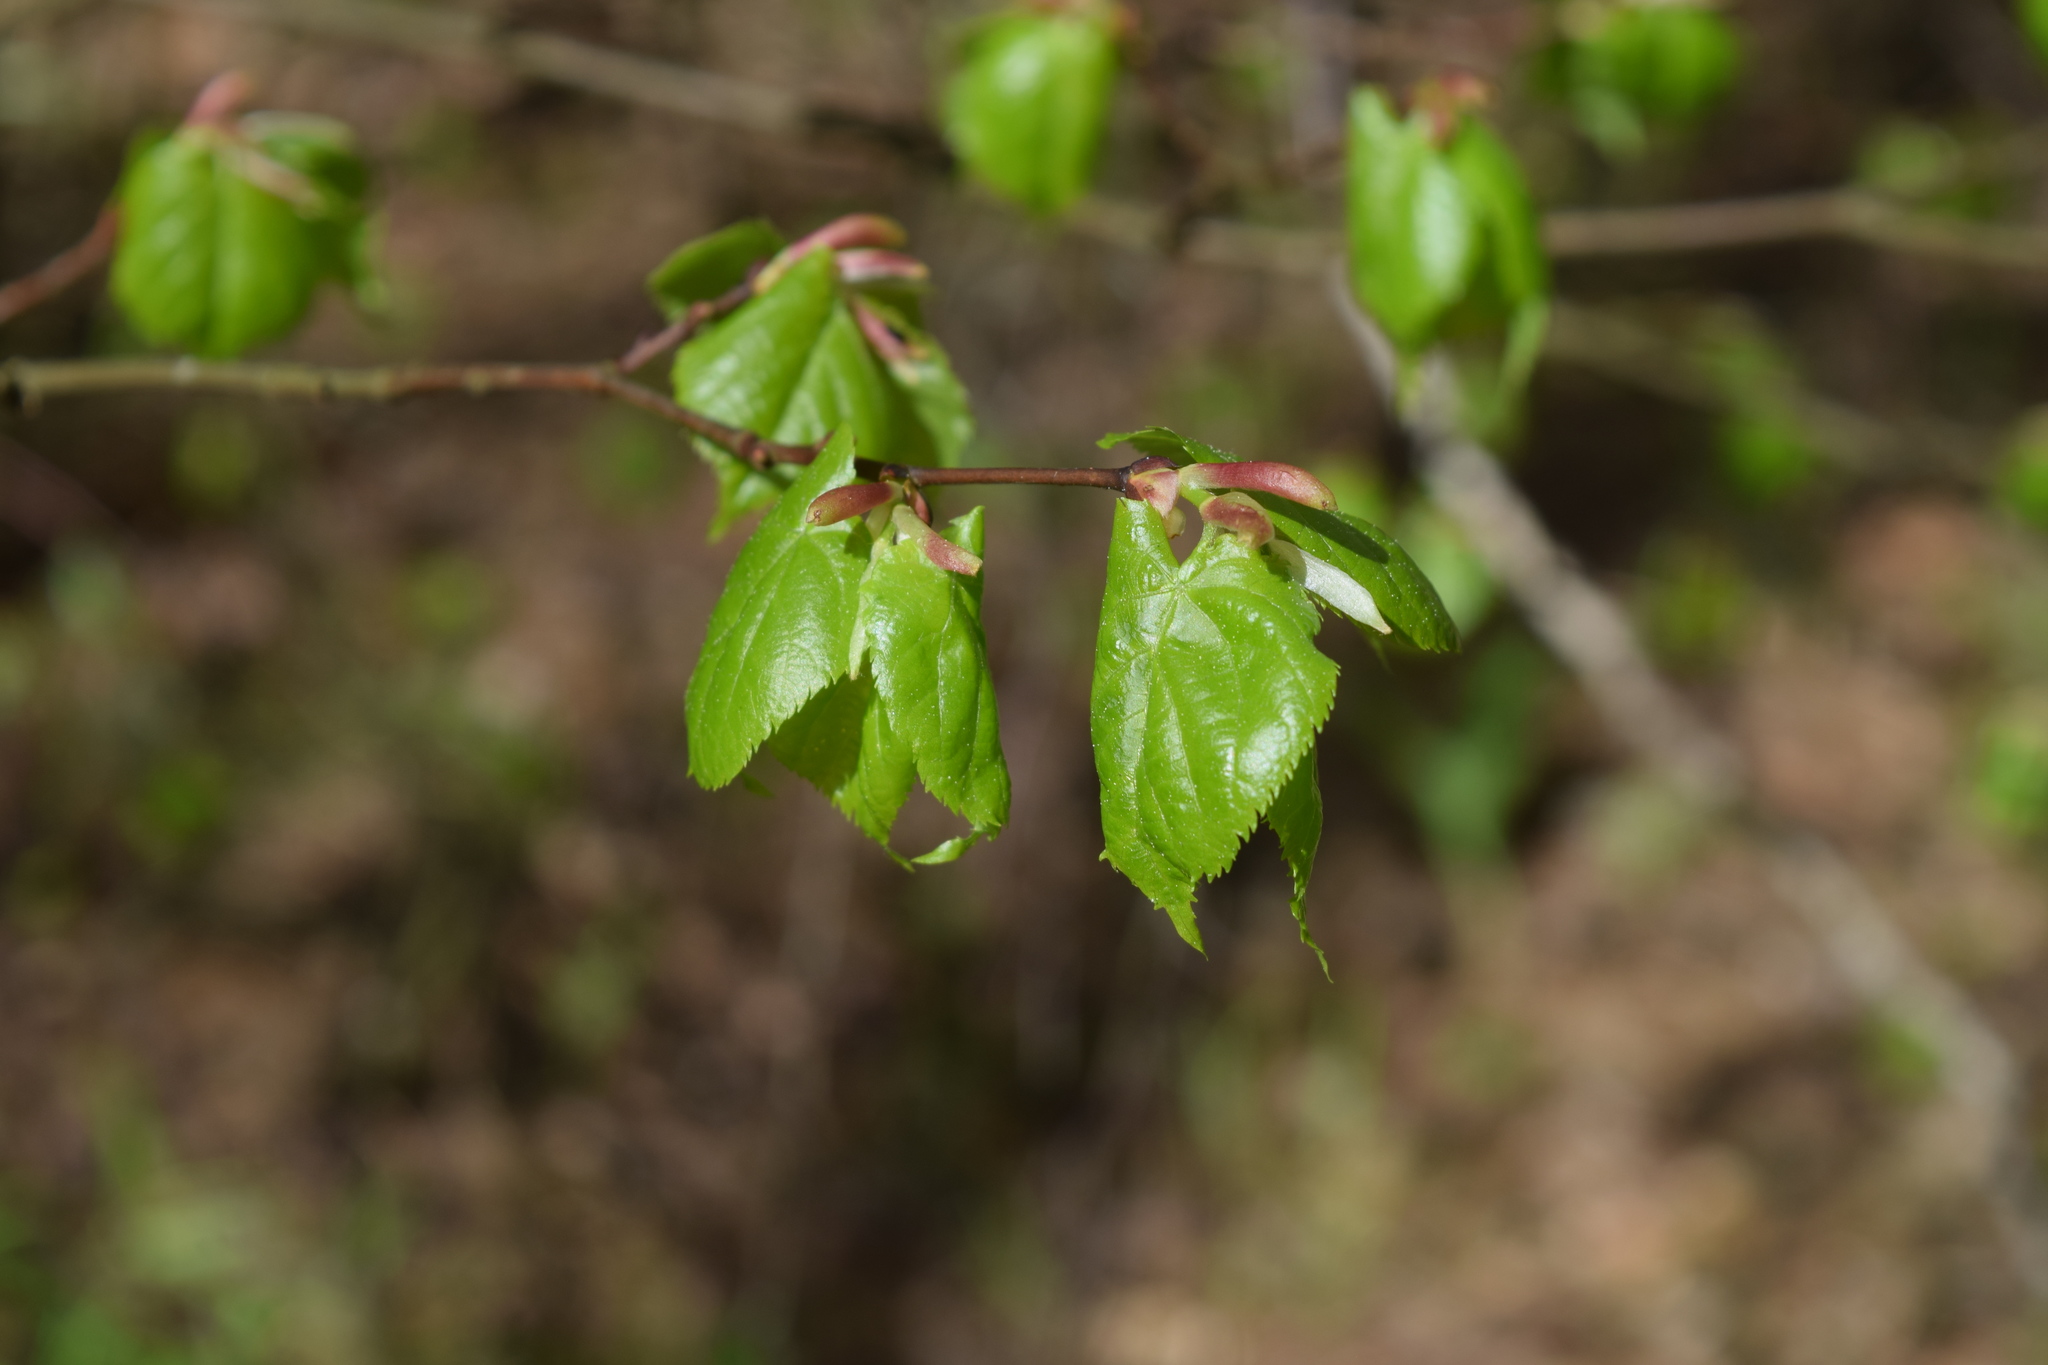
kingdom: Plantae
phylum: Tracheophyta
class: Magnoliopsida
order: Malvales
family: Malvaceae
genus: Tilia
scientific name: Tilia cordata
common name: Small-leaved lime
